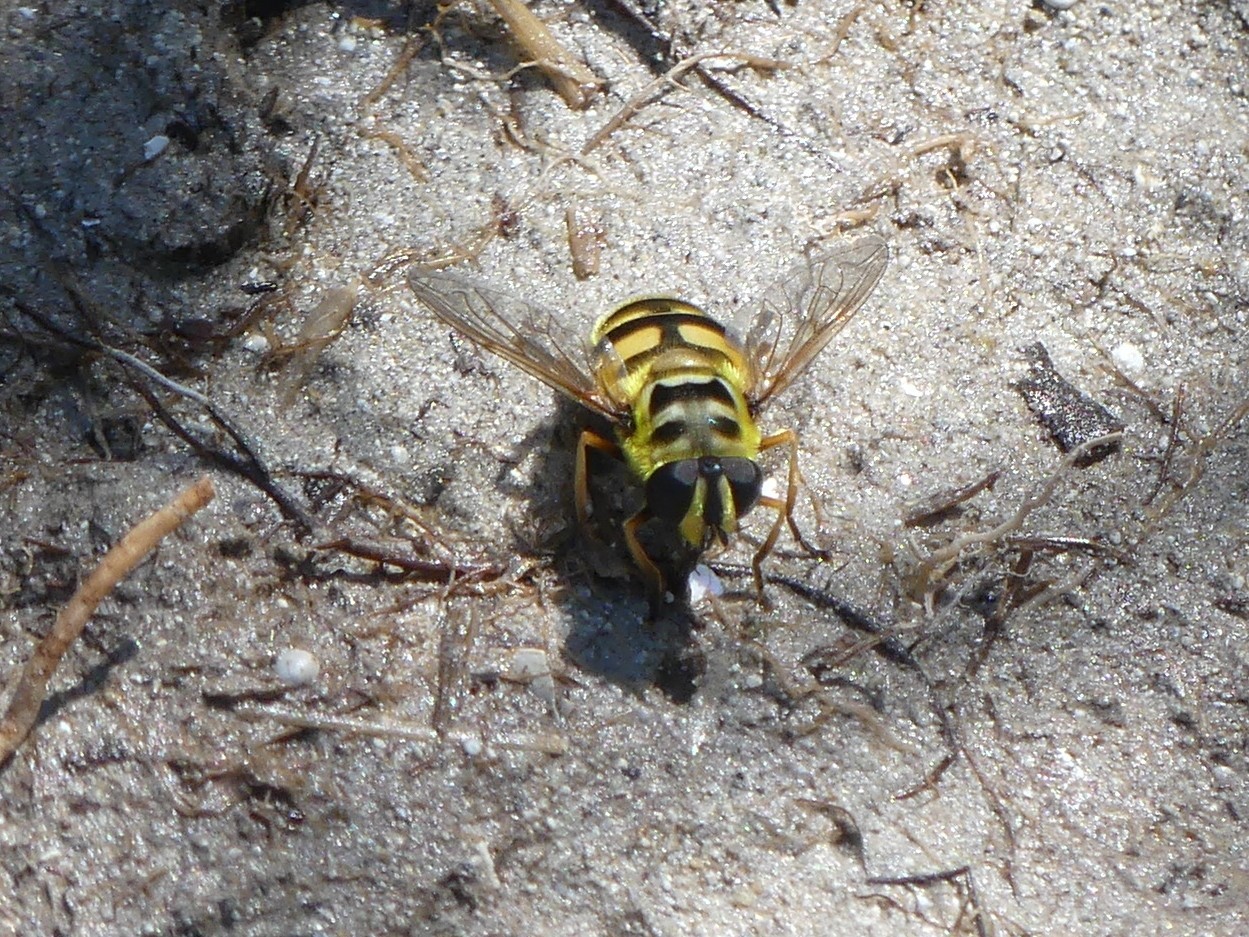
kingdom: Animalia
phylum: Arthropoda
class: Insecta
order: Diptera
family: Syrphidae
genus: Myathropa
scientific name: Myathropa florea
